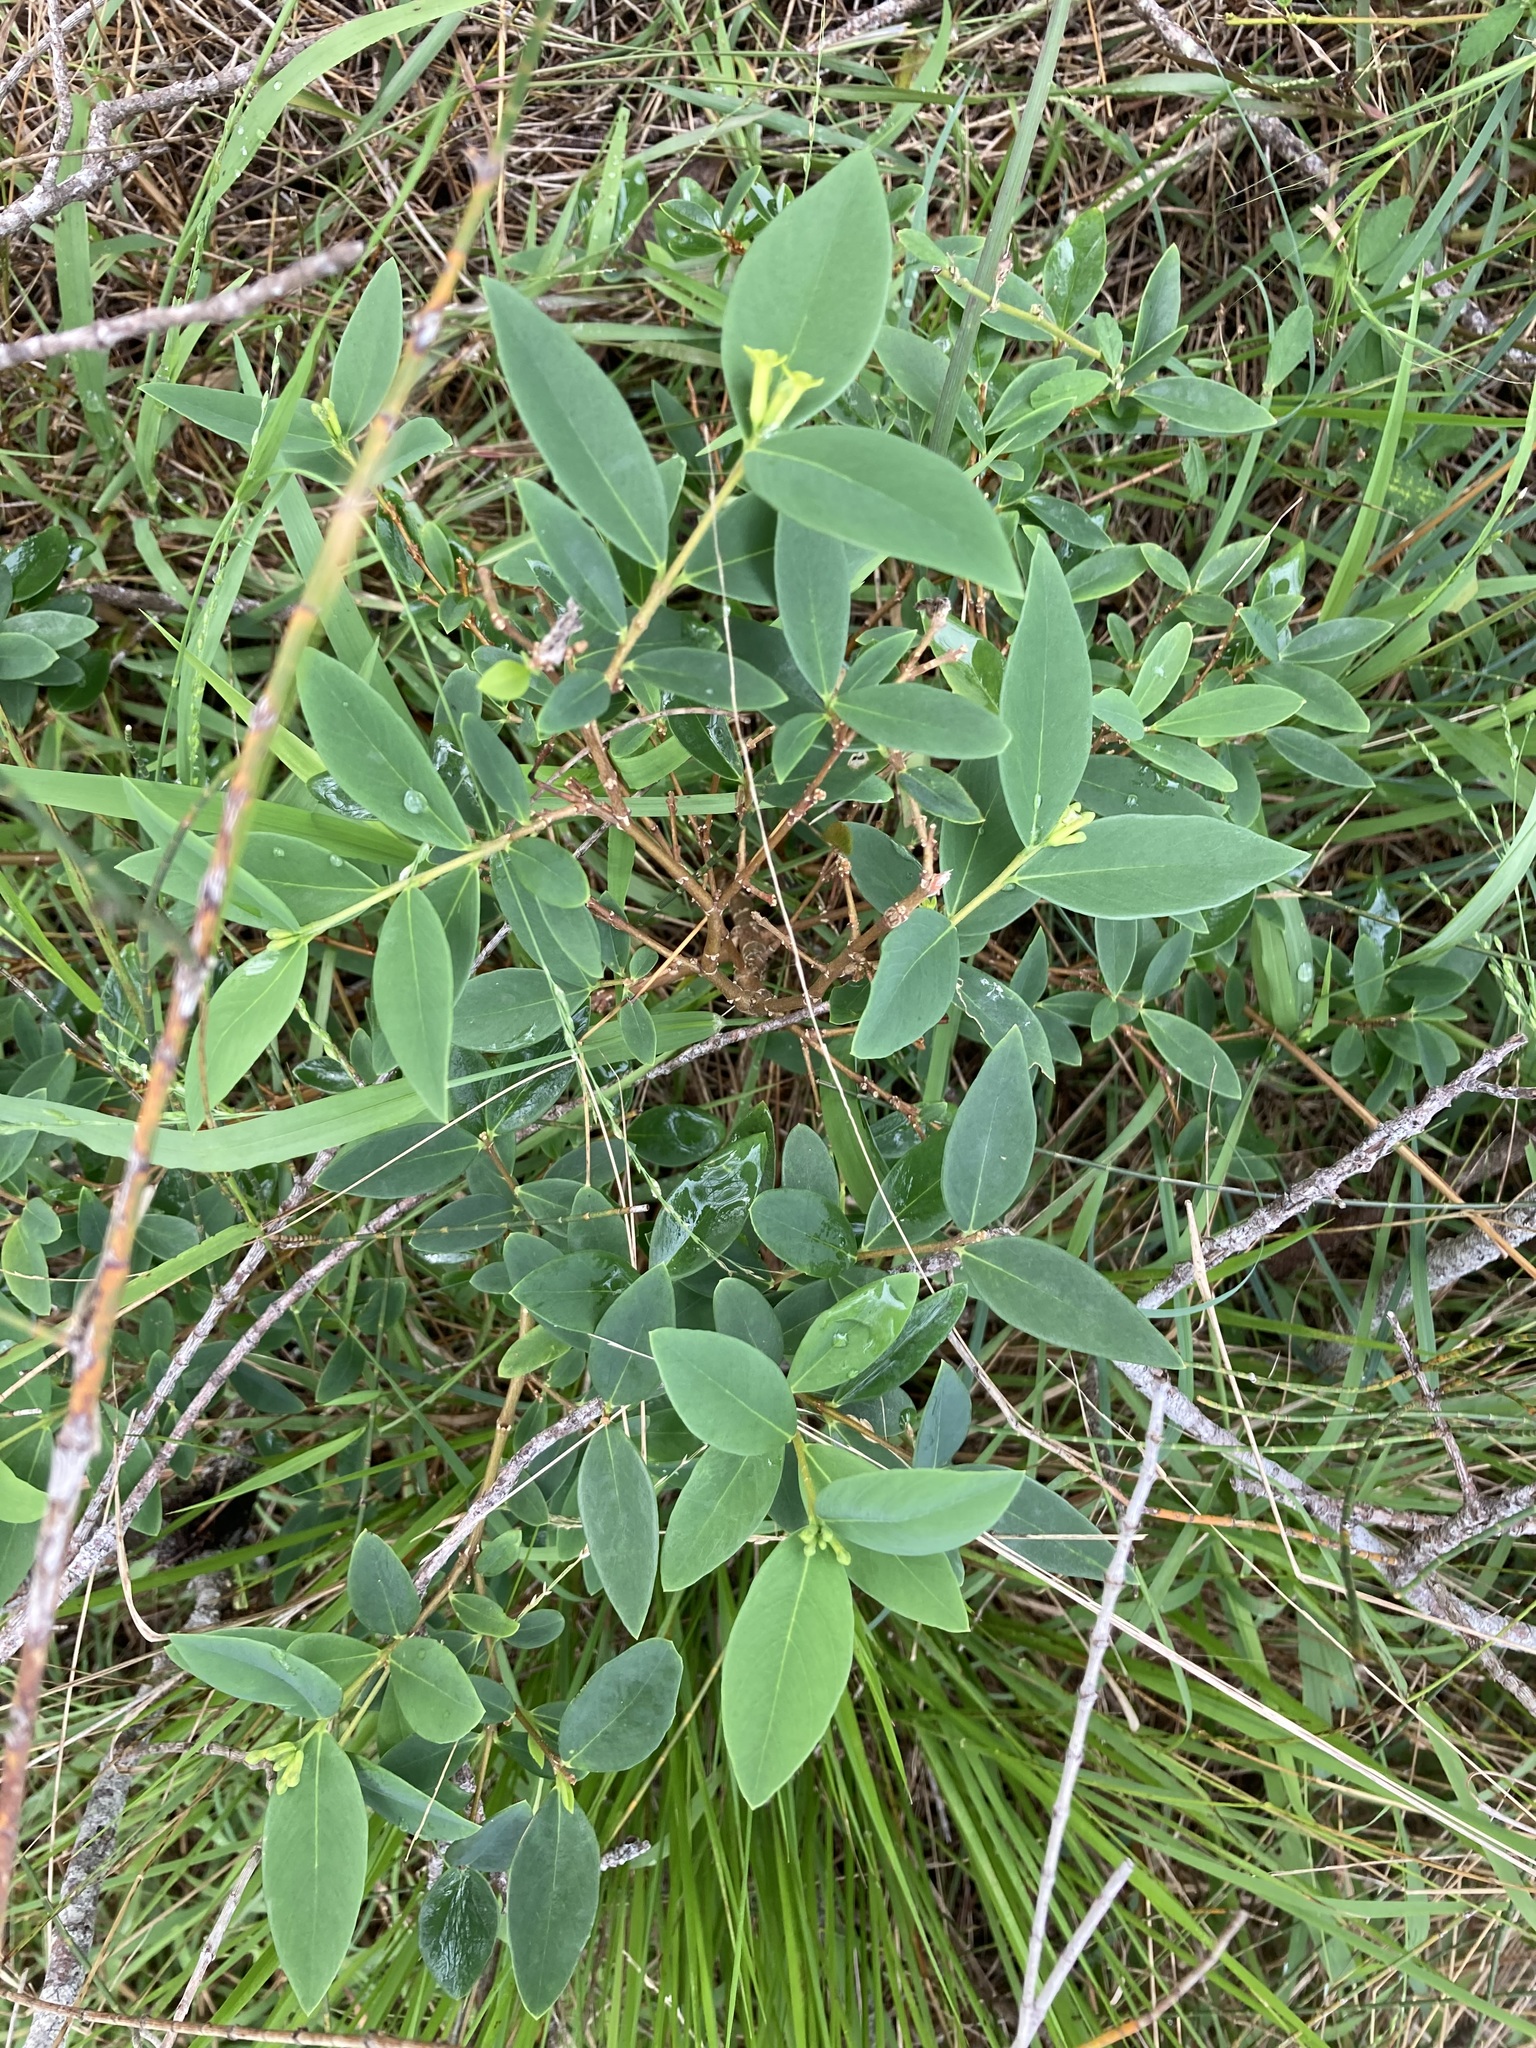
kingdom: Plantae
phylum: Tracheophyta
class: Magnoliopsida
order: Malvales
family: Thymelaeaceae
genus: Wikstroemia
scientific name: Wikstroemia indica
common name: Tiebush
